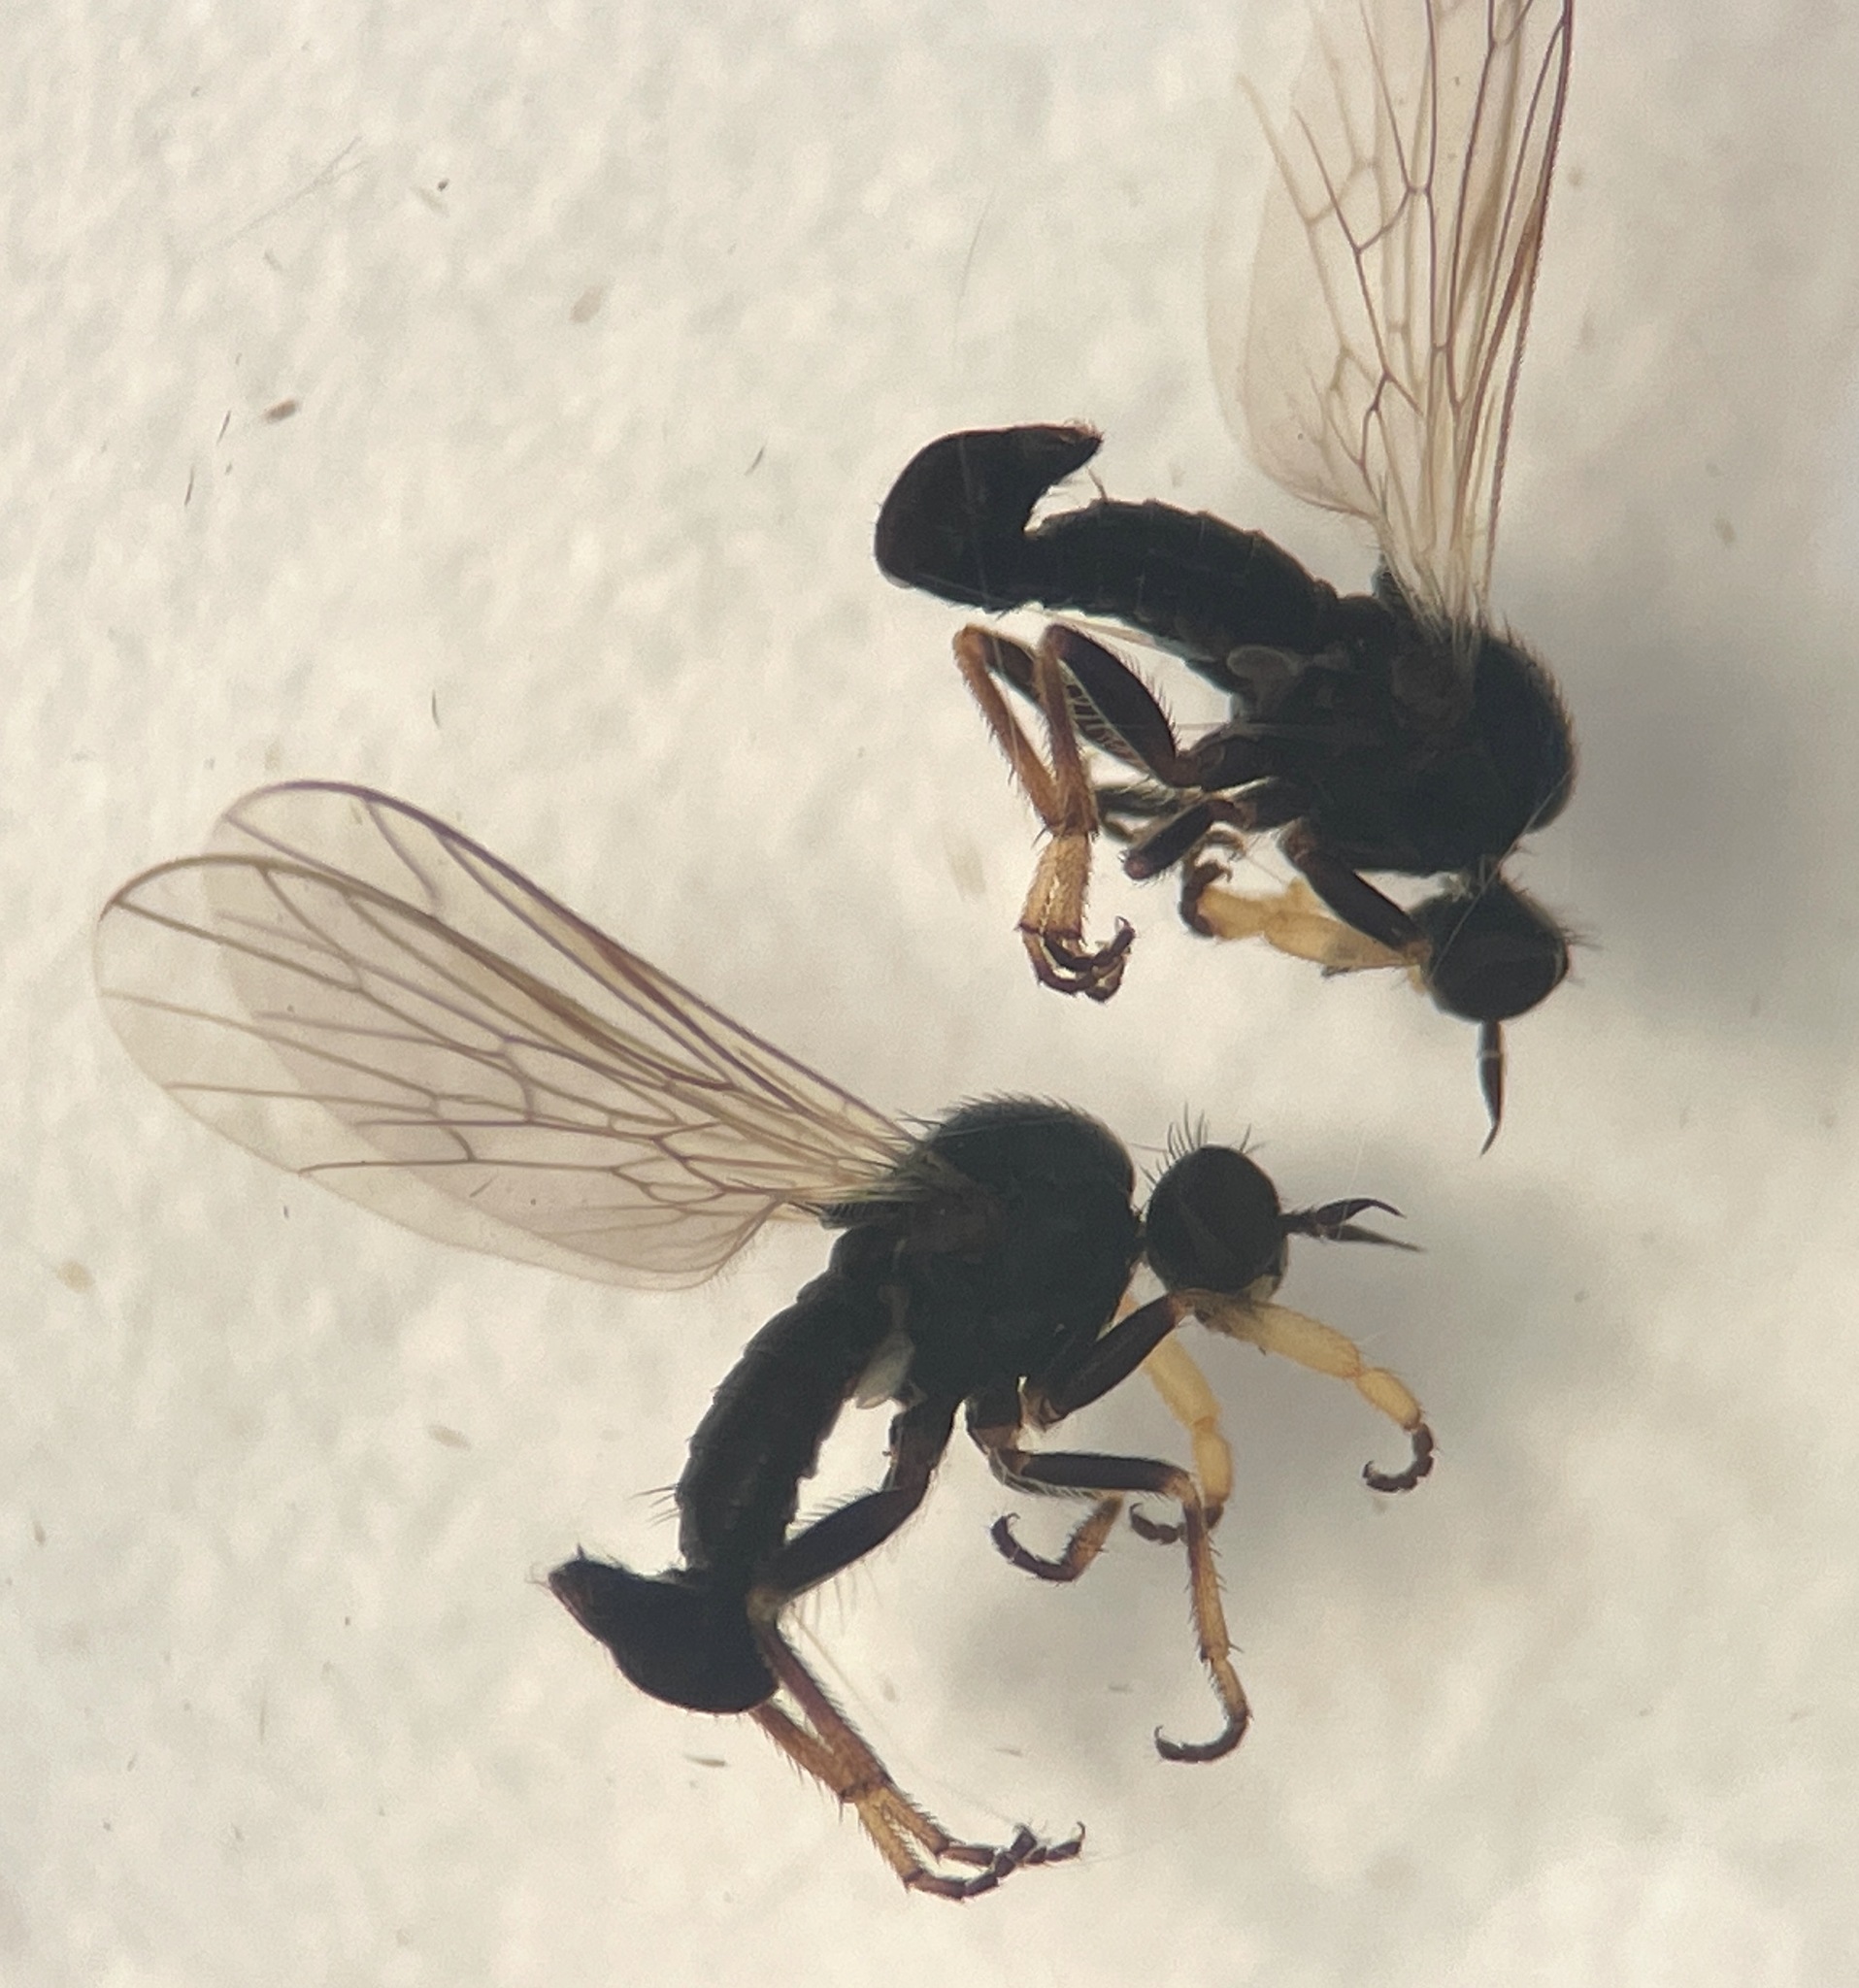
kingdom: Animalia
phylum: Arthropoda
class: Insecta
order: Diptera
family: Empididae
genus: Hilarempis
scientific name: Hilarempis minthaphila
